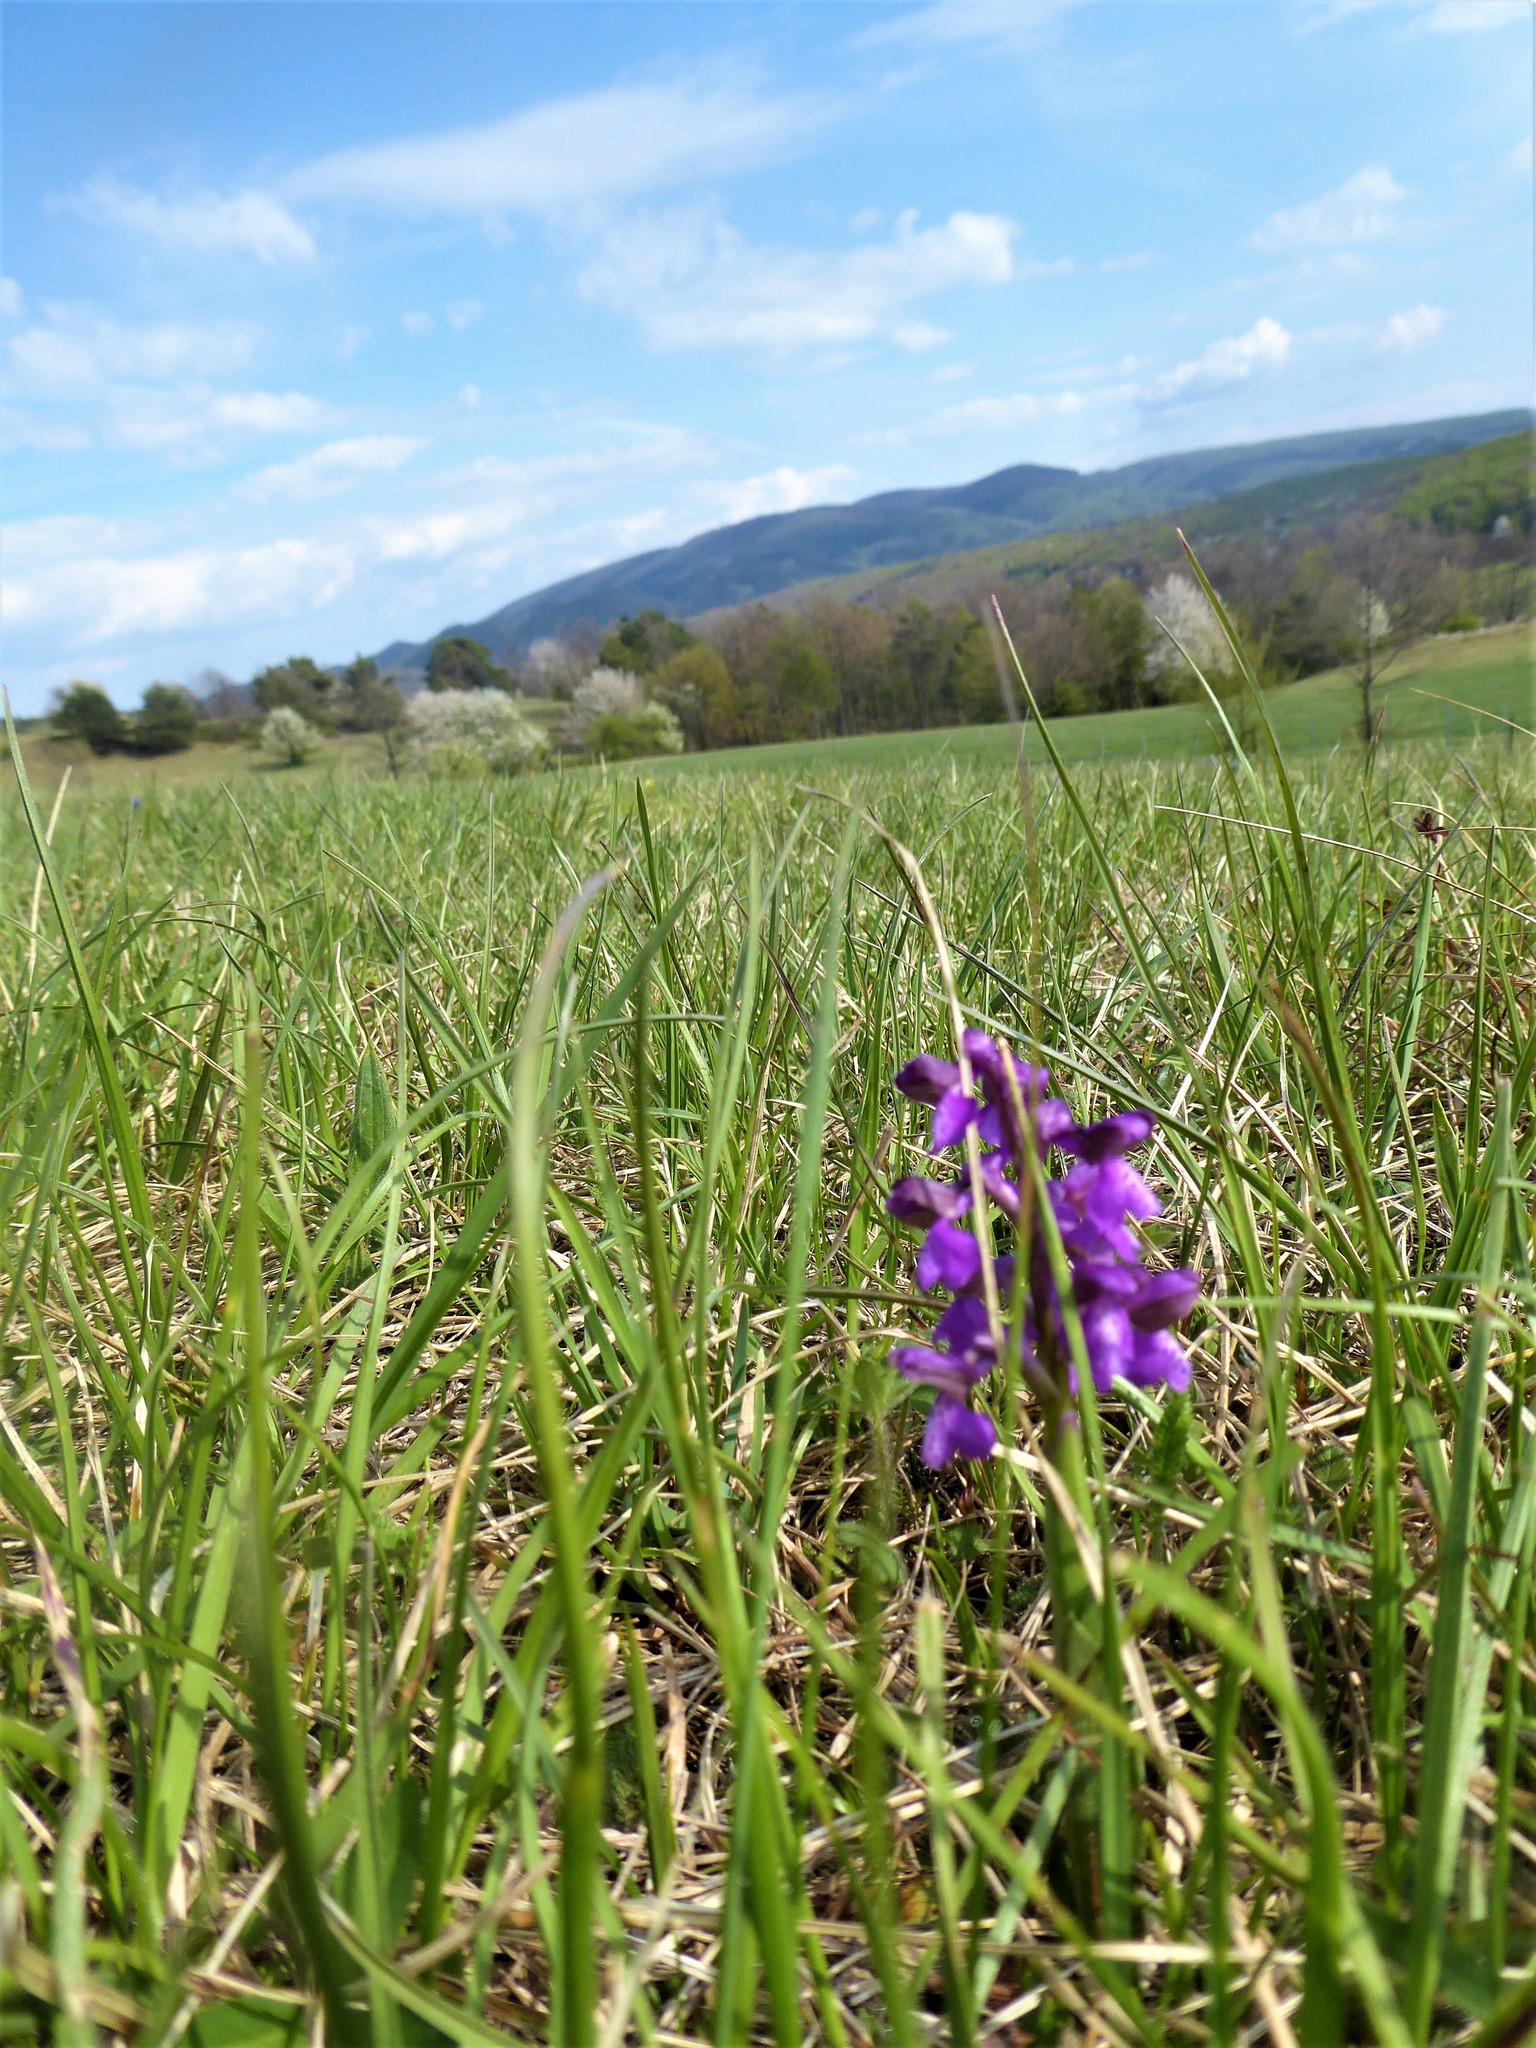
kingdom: Plantae
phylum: Tracheophyta
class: Liliopsida
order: Asparagales
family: Orchidaceae
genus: Anacamptis
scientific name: Anacamptis morio
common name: Green-winged orchid
